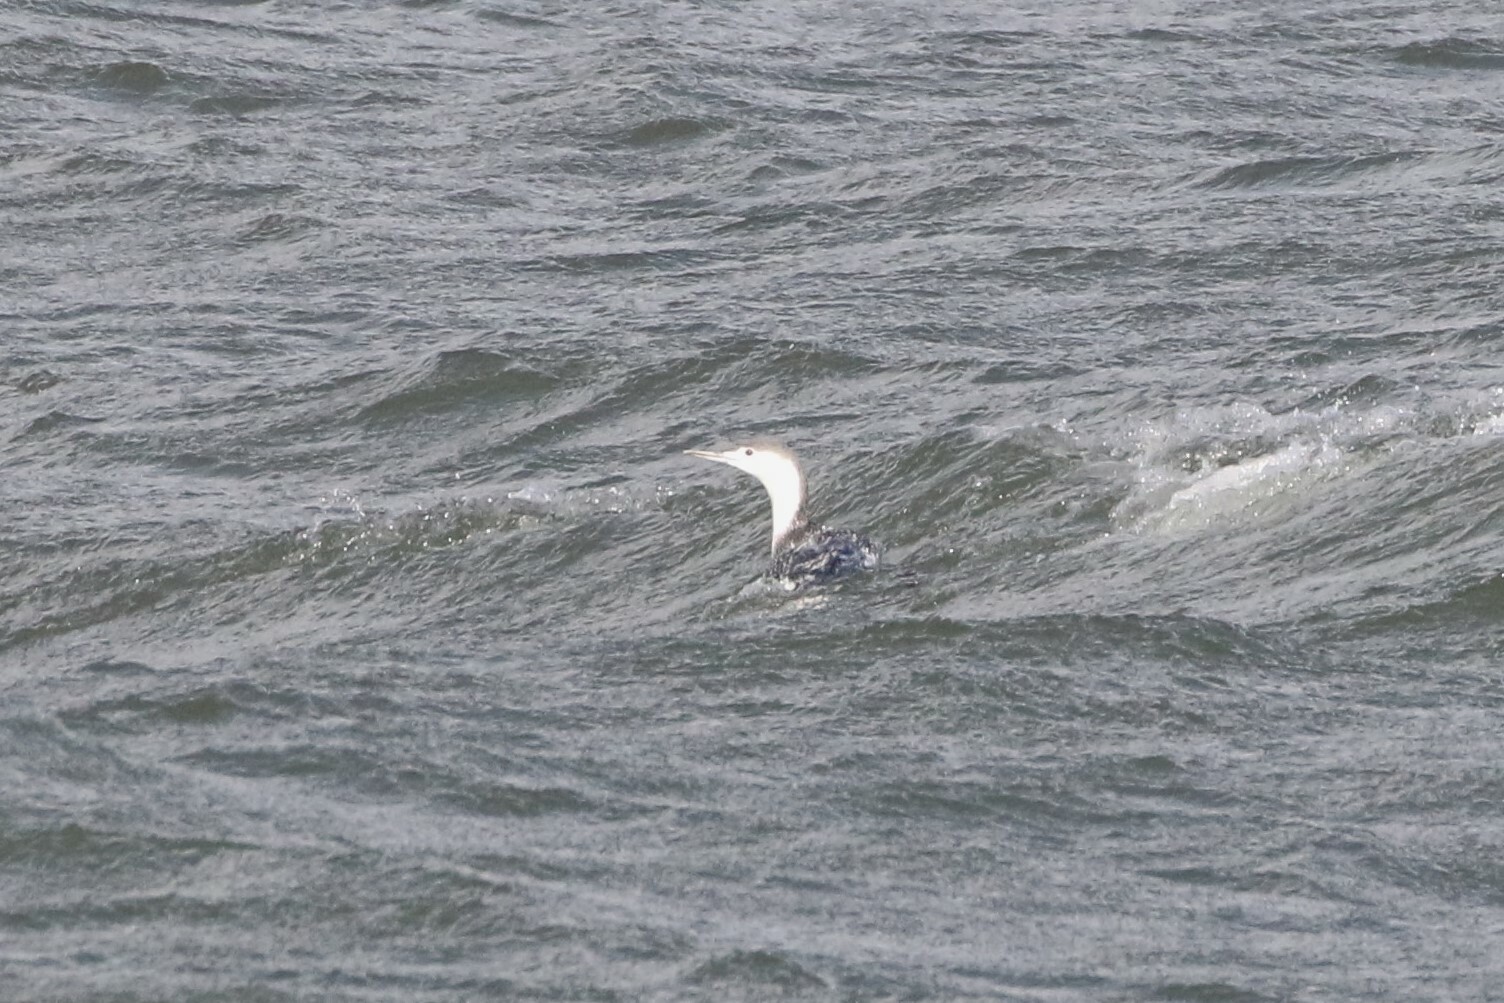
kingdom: Animalia
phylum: Chordata
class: Aves
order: Gaviiformes
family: Gaviidae
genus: Gavia
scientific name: Gavia stellata
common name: Red-throated loon
